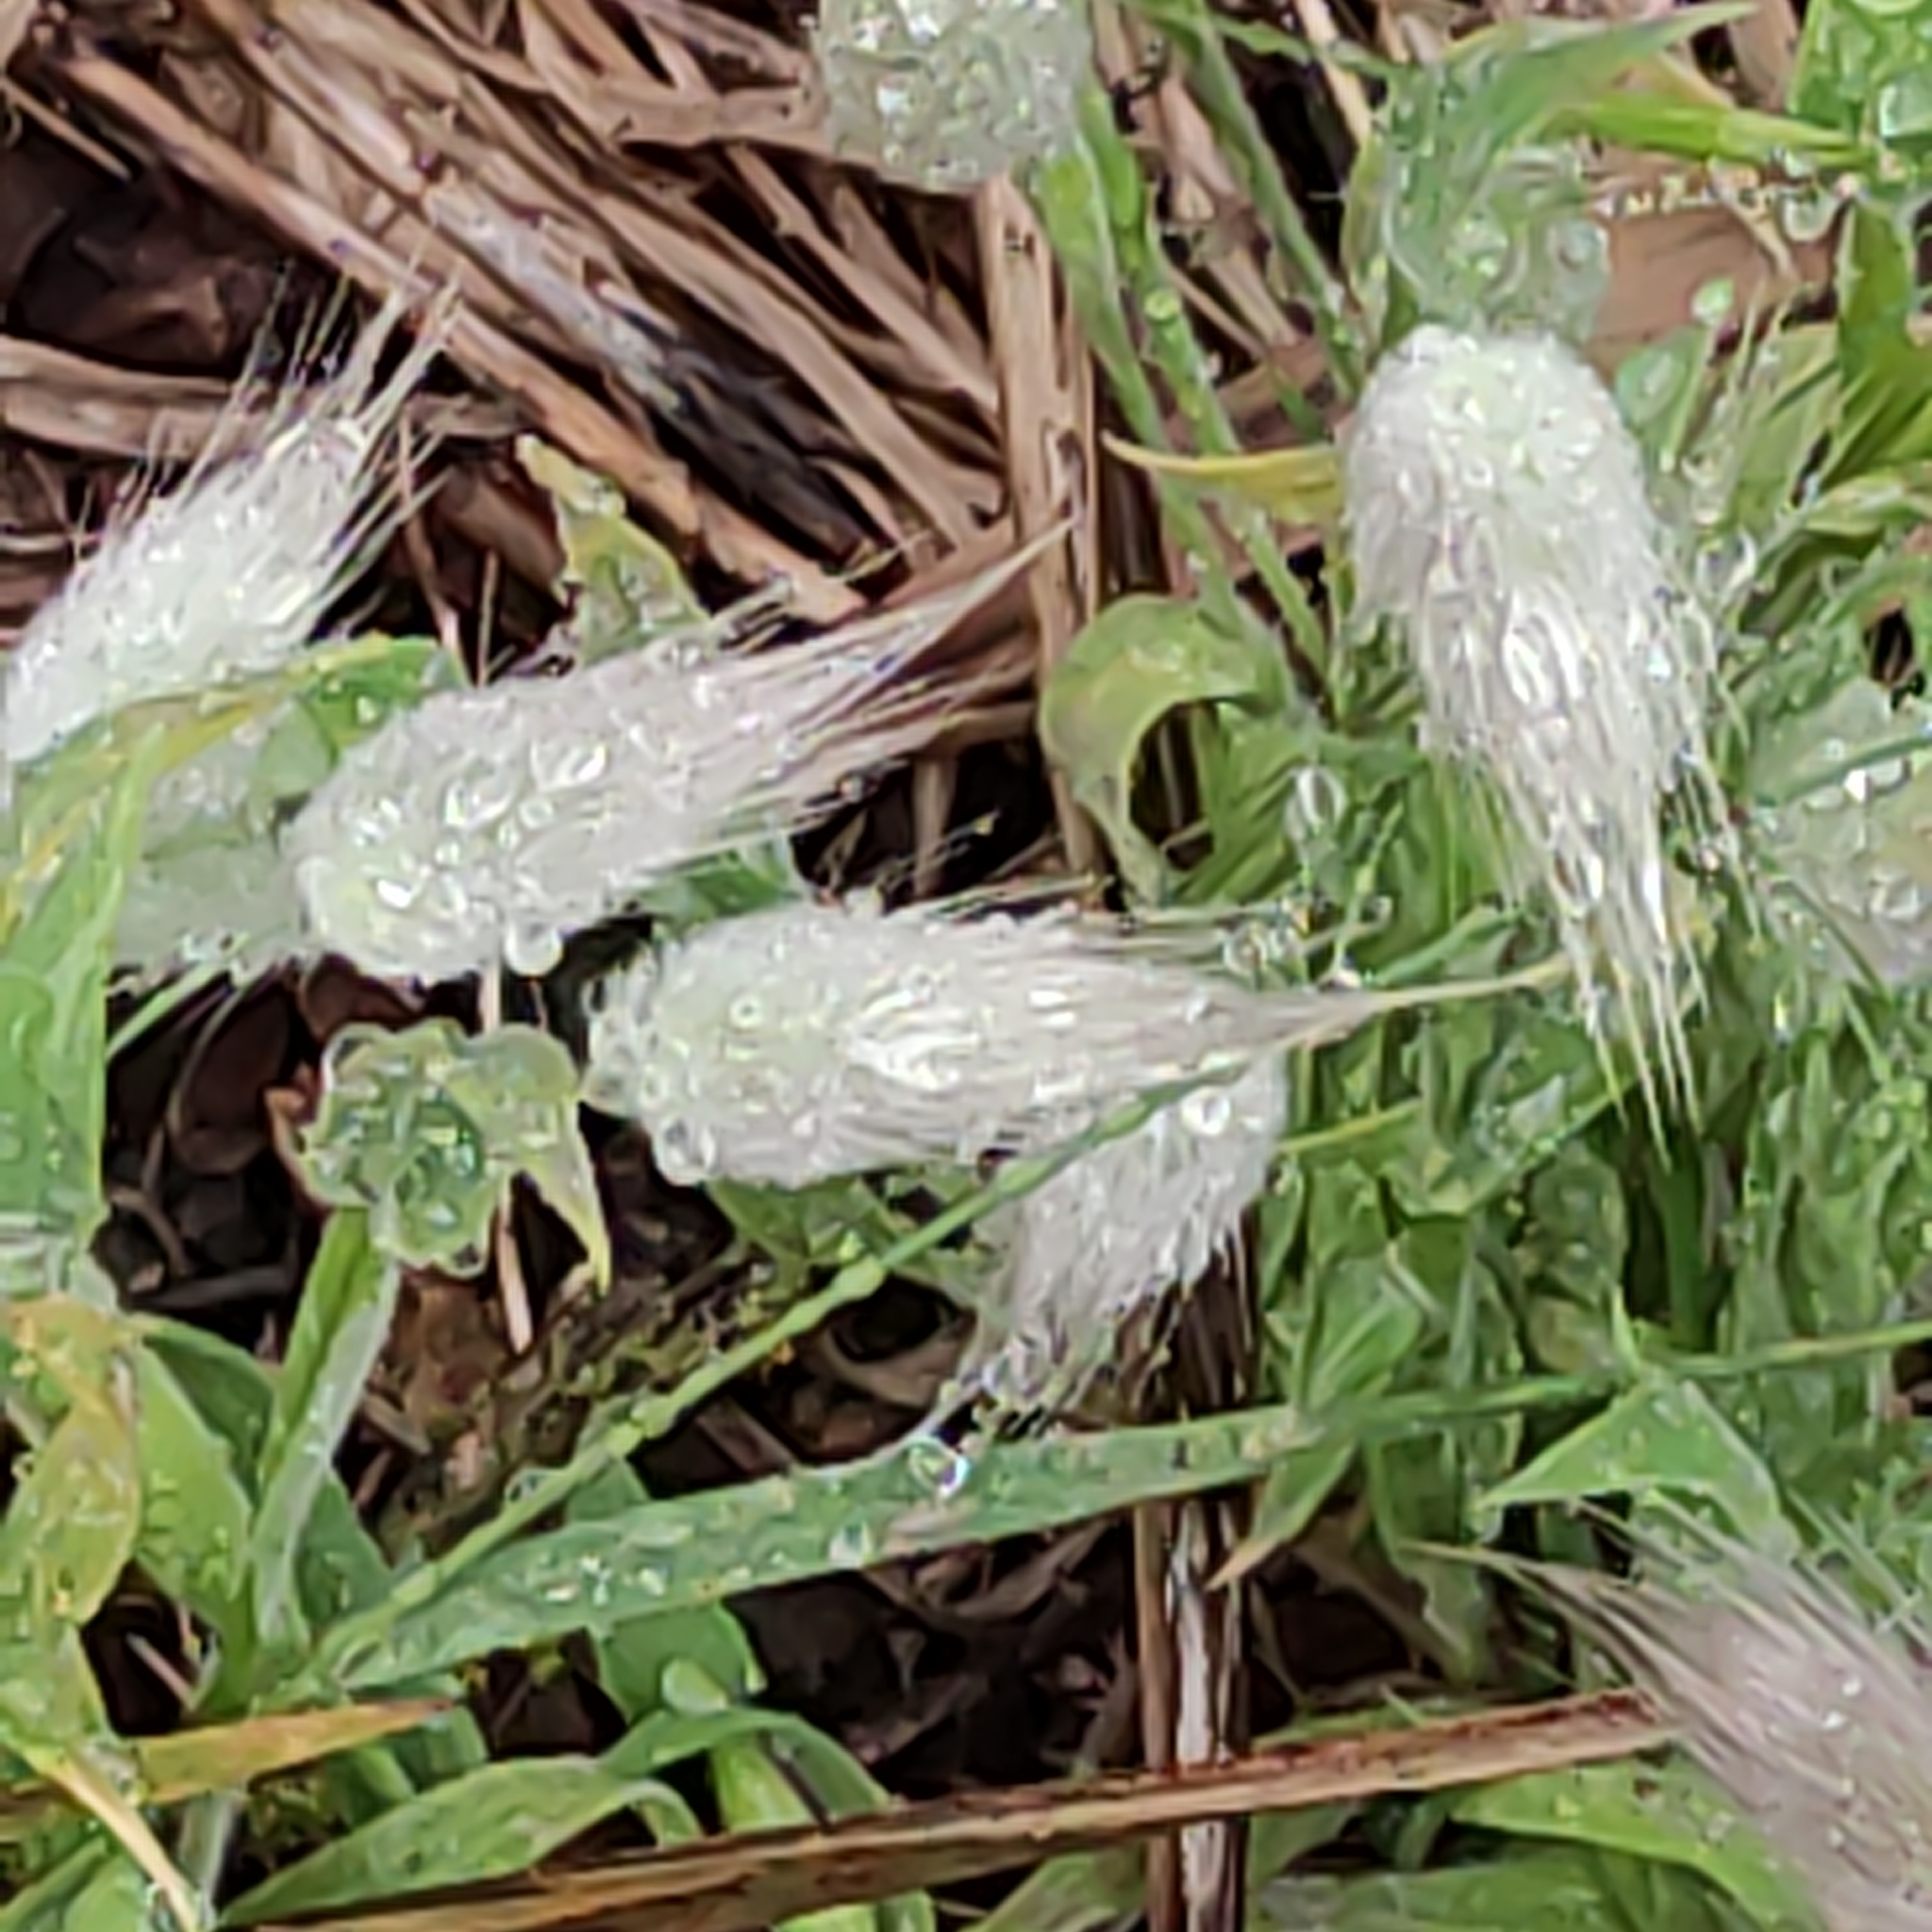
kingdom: Plantae
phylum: Tracheophyta
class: Liliopsida
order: Poales
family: Poaceae
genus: Lagurus
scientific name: Lagurus ovatus
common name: Hare's-tail
